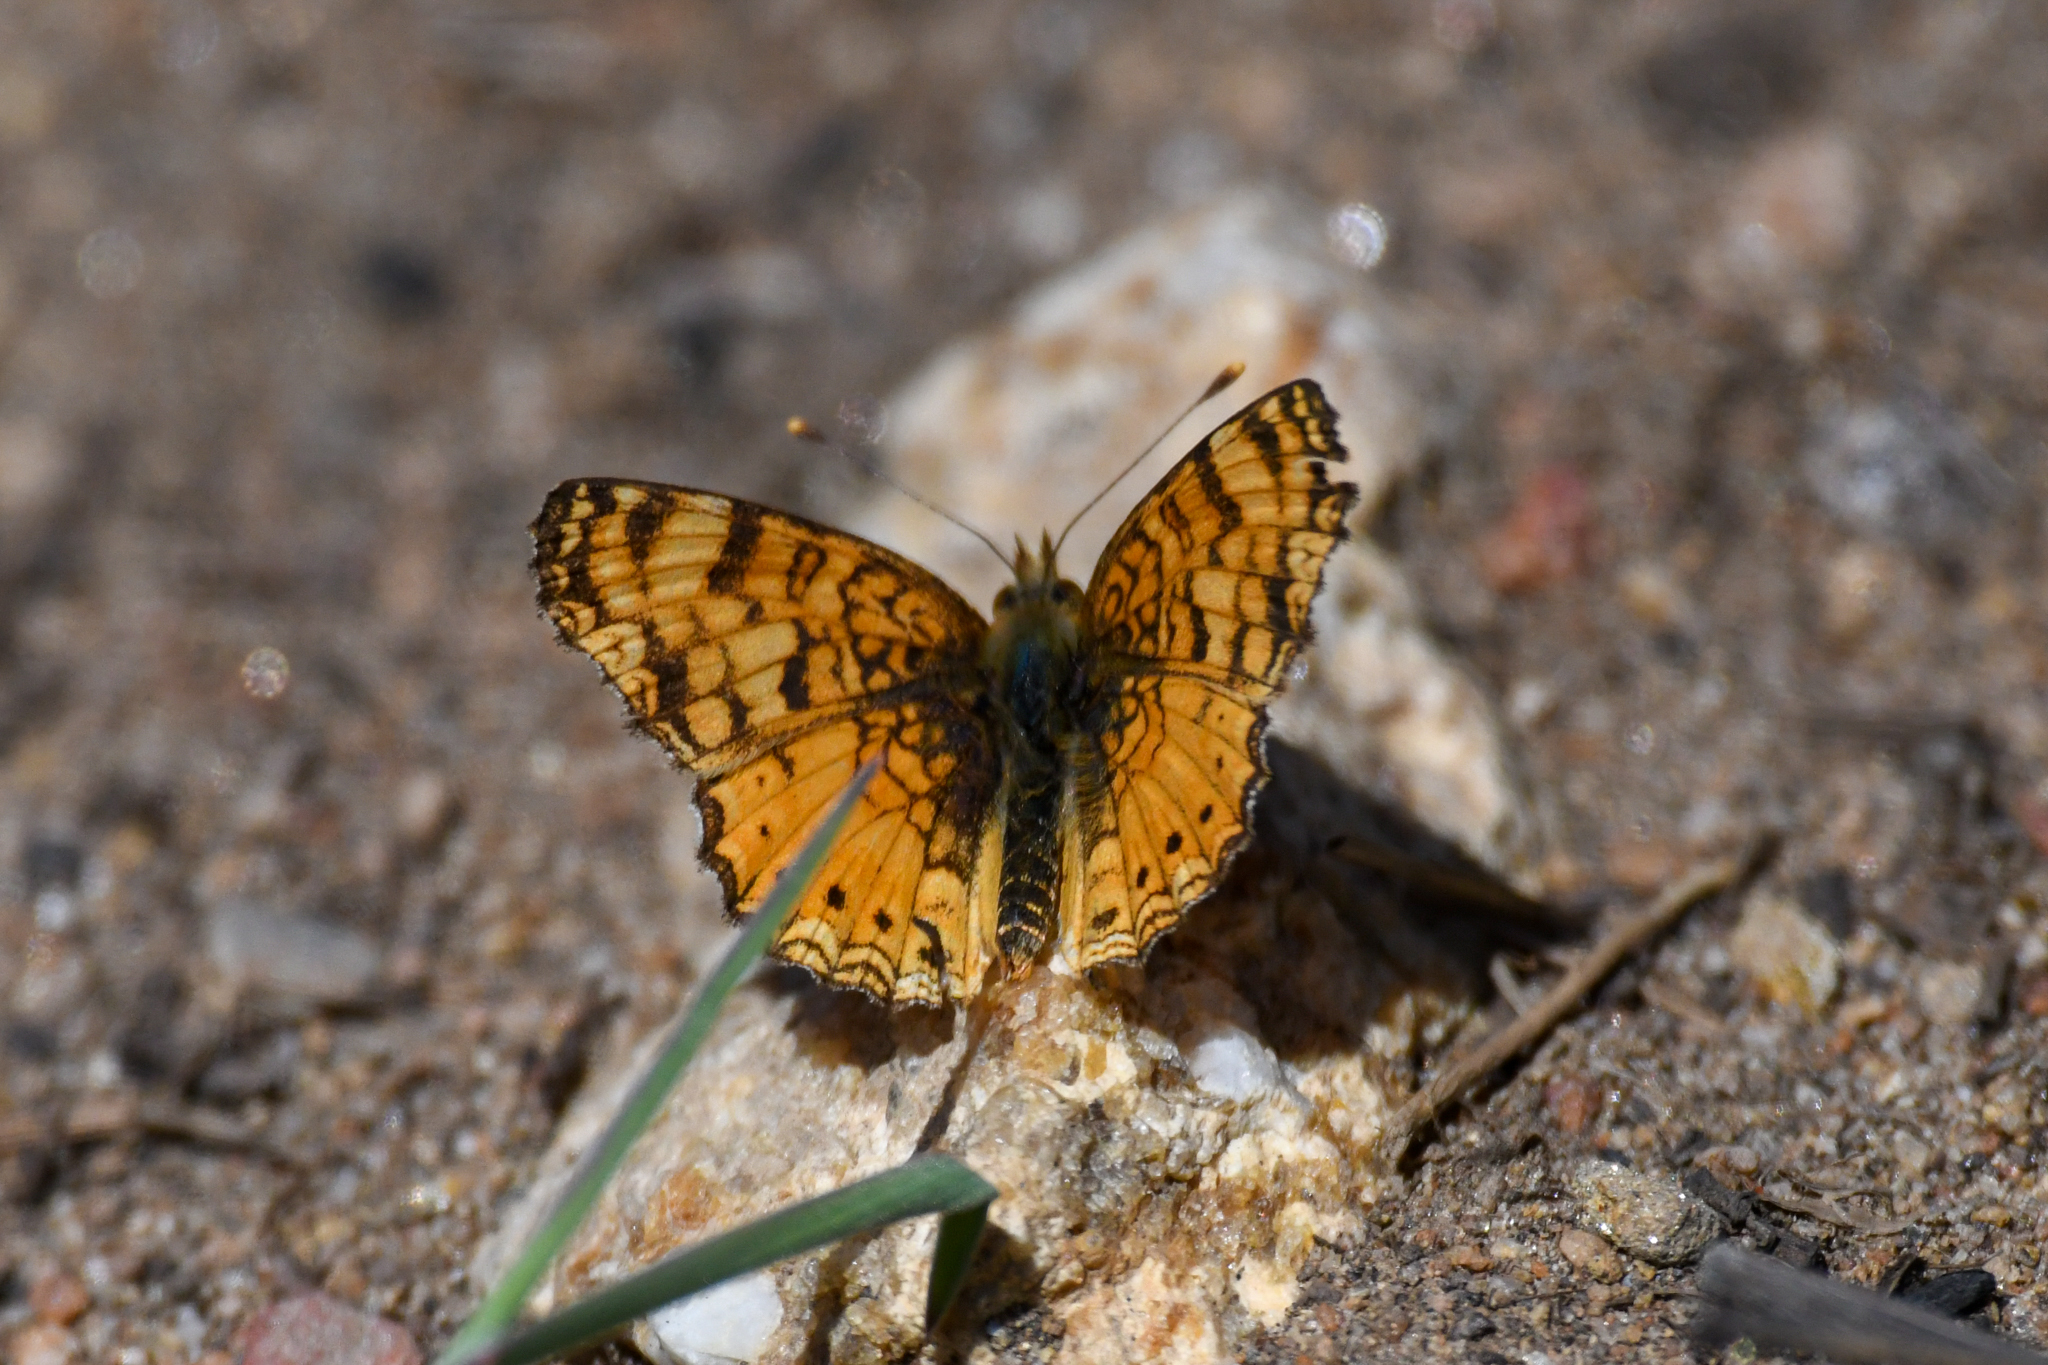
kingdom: Animalia
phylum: Arthropoda
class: Insecta
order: Lepidoptera
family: Nymphalidae
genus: Eresia
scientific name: Eresia aveyrona
